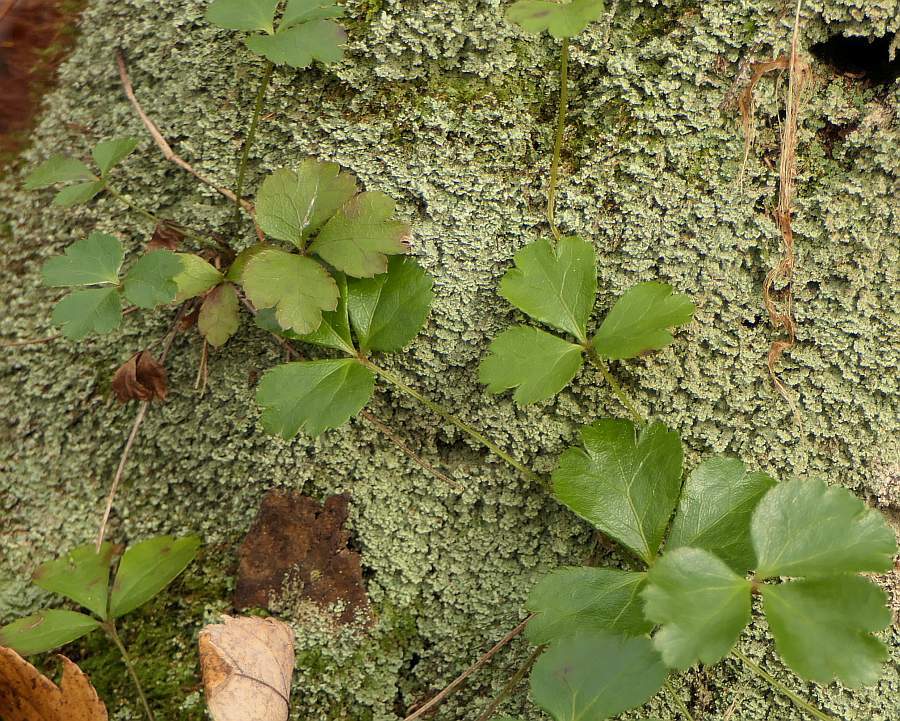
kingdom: Plantae
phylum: Tracheophyta
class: Magnoliopsida
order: Ranunculales
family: Ranunculaceae
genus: Coptis
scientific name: Coptis trifolia
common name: Canker-root
